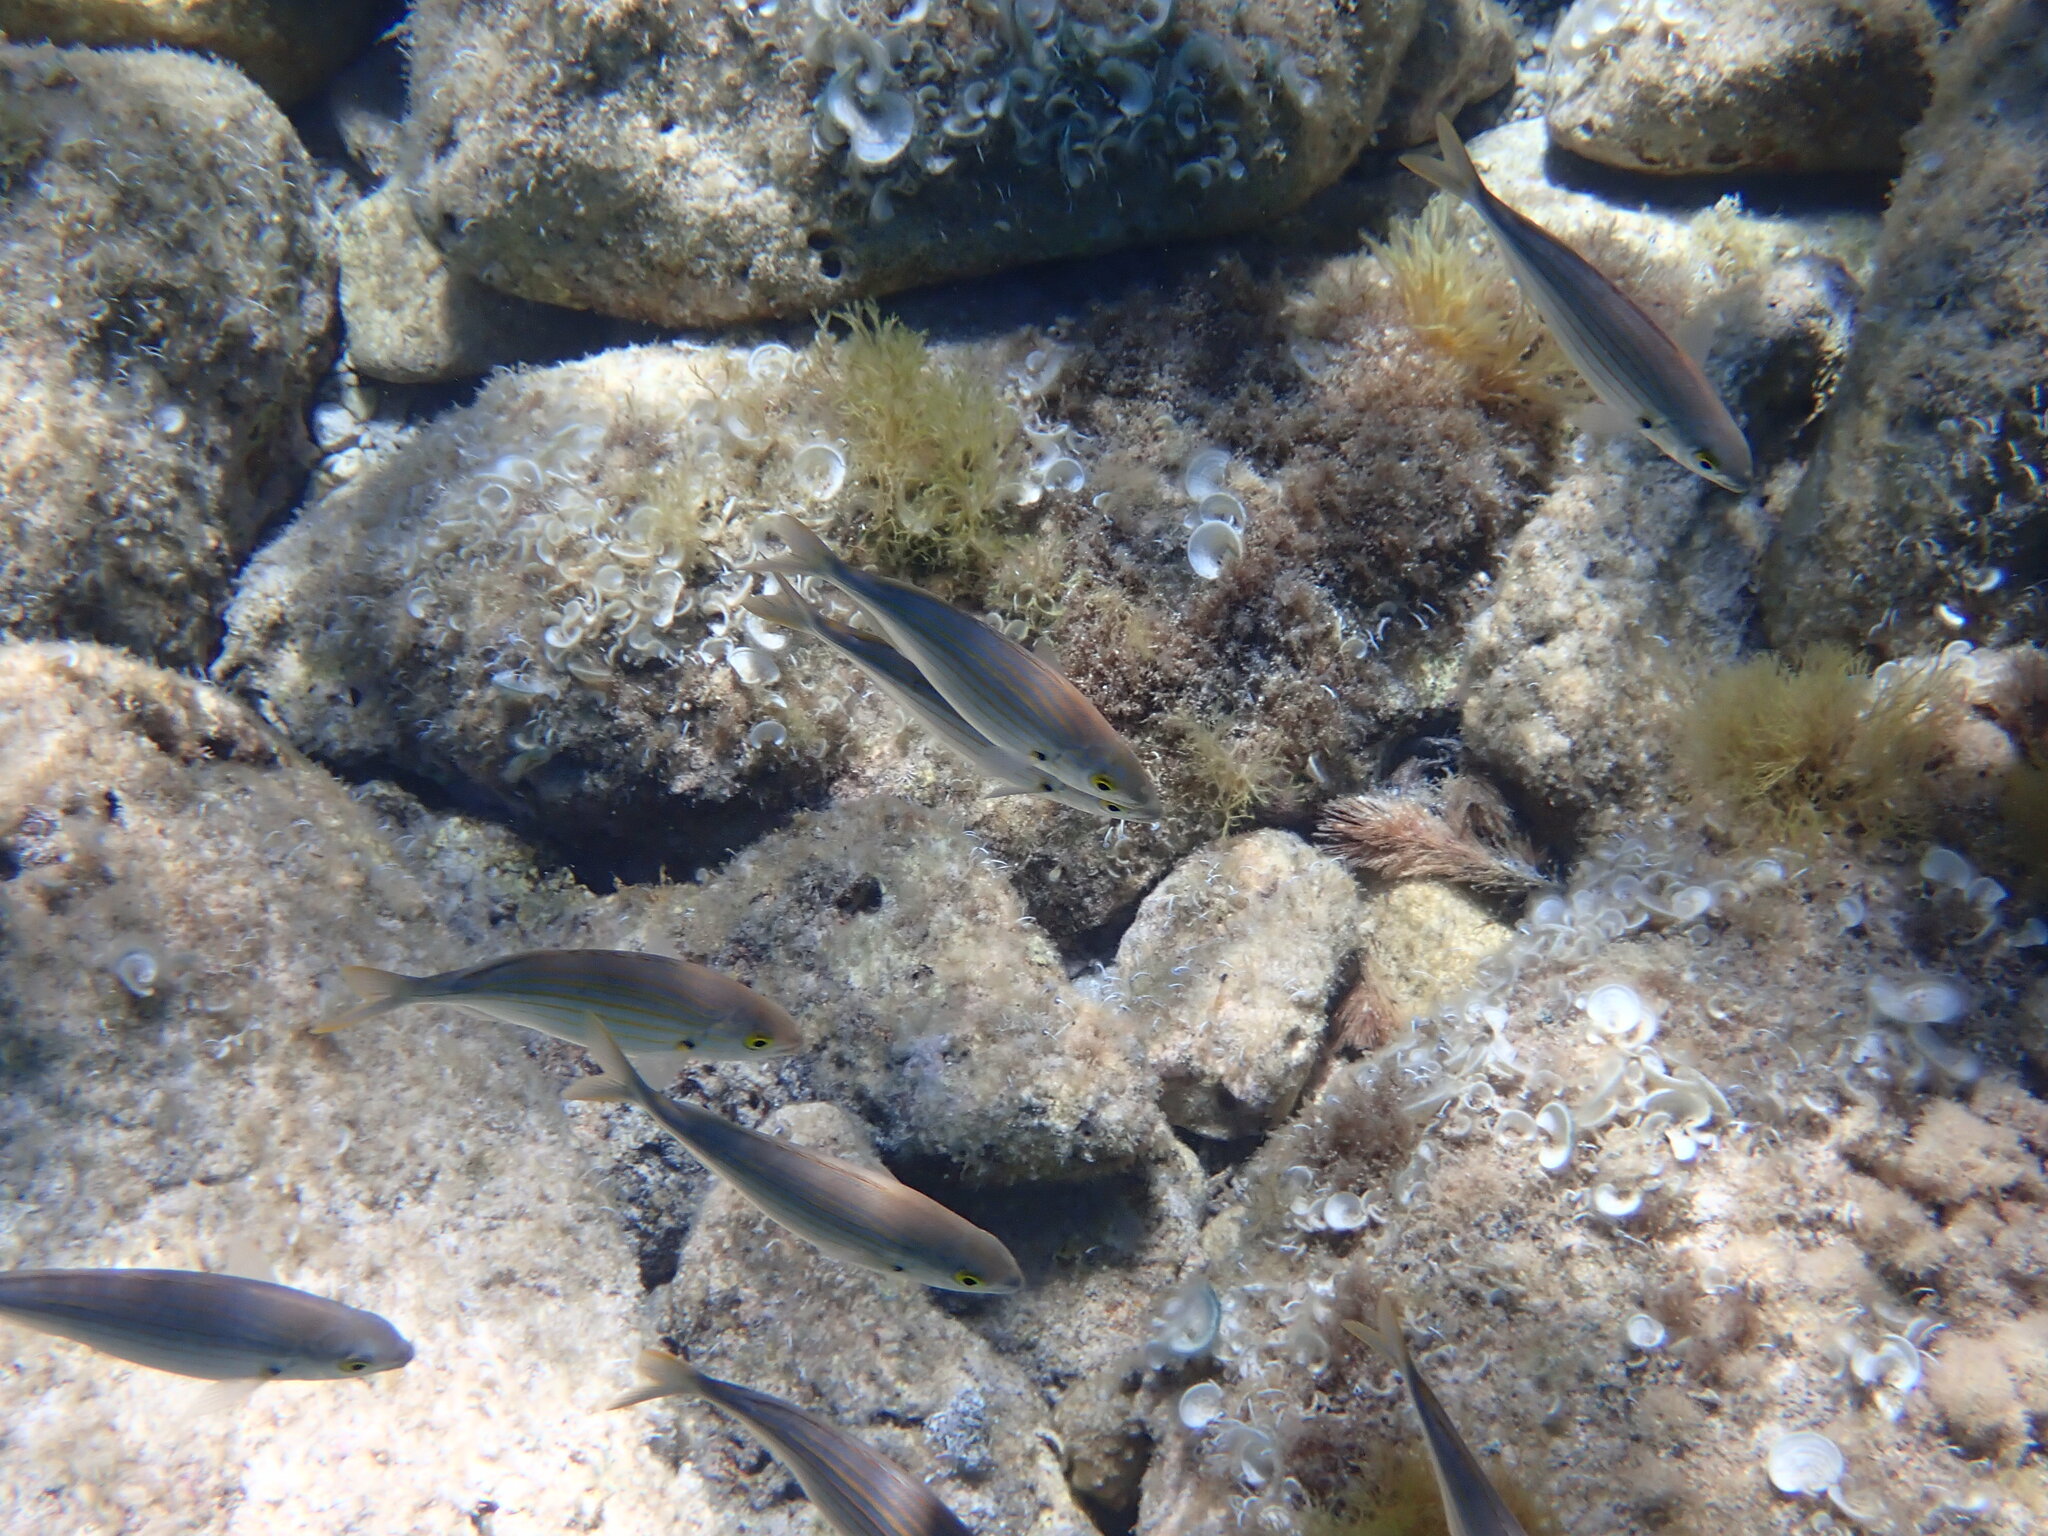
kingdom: Animalia
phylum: Chordata
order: Perciformes
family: Sparidae
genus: Sarpa
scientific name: Sarpa salpa
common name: Salema
